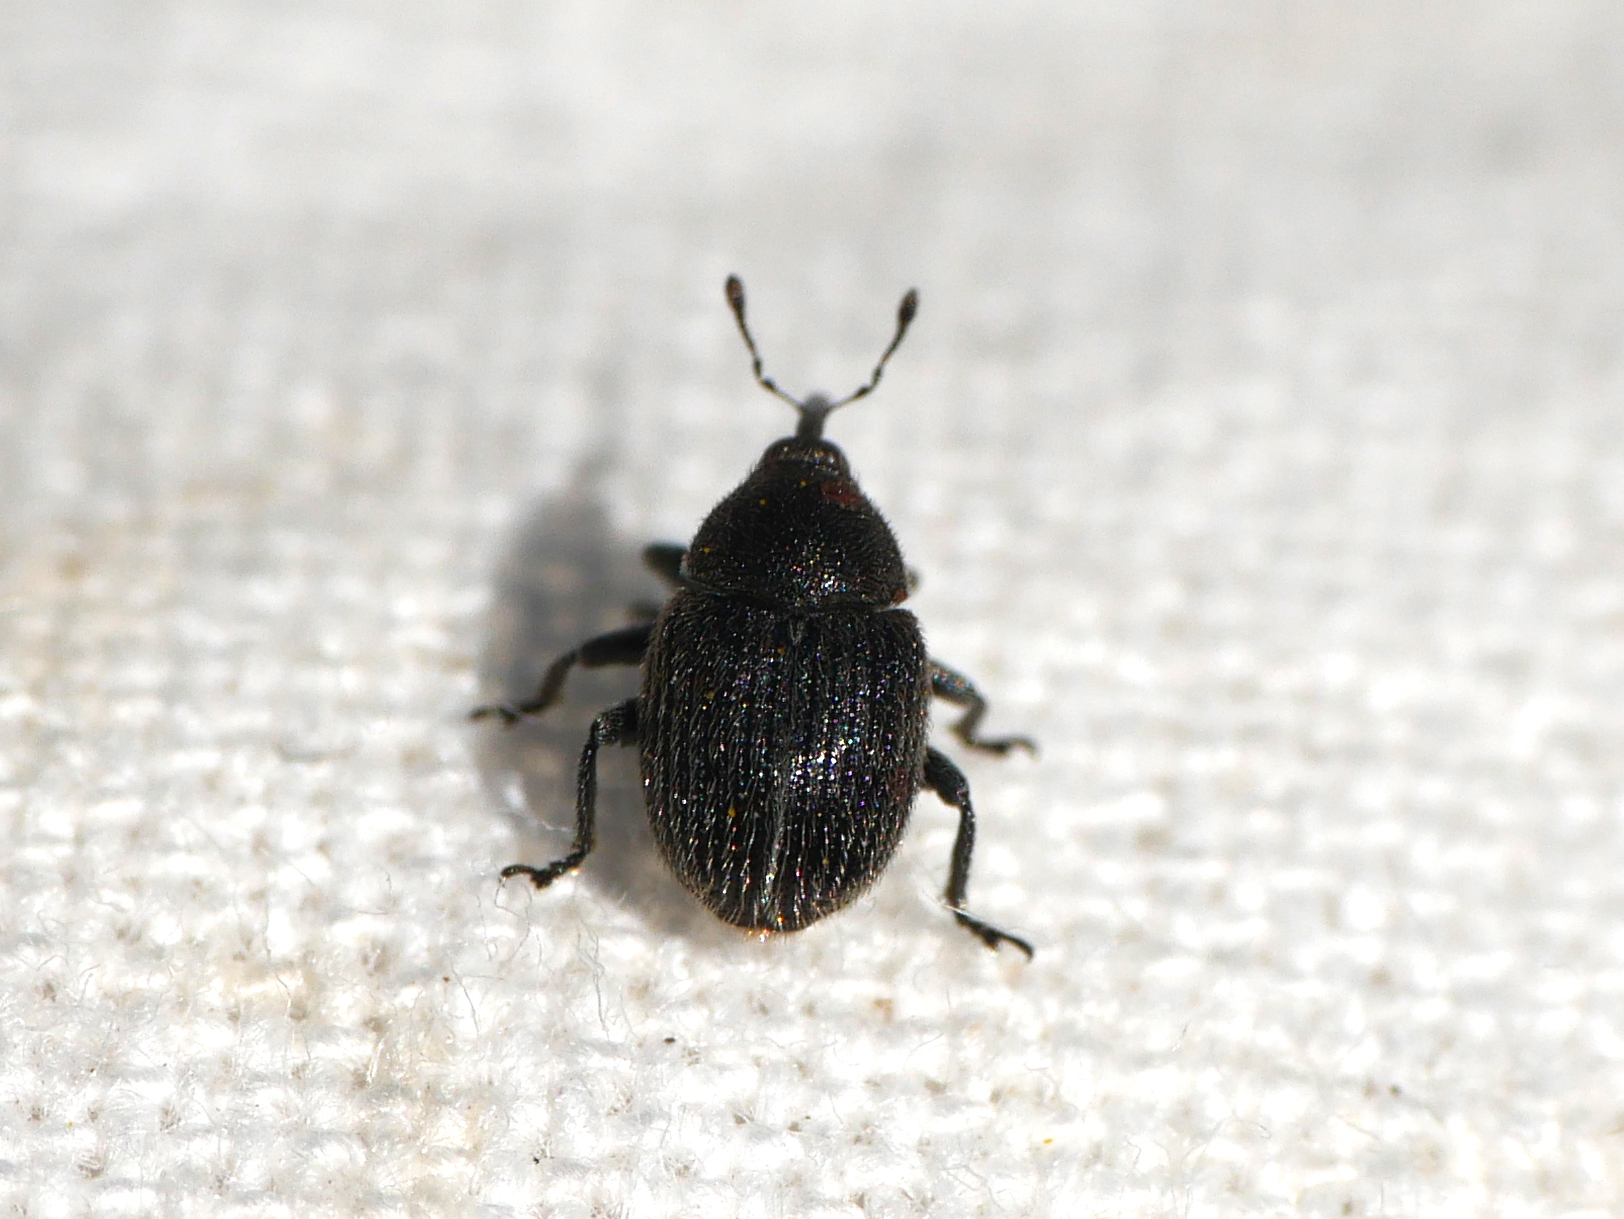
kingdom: Animalia
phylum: Arthropoda
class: Insecta
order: Coleoptera
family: Curculionidae
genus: Cleopomiarus
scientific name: Cleopomiarus graminis
